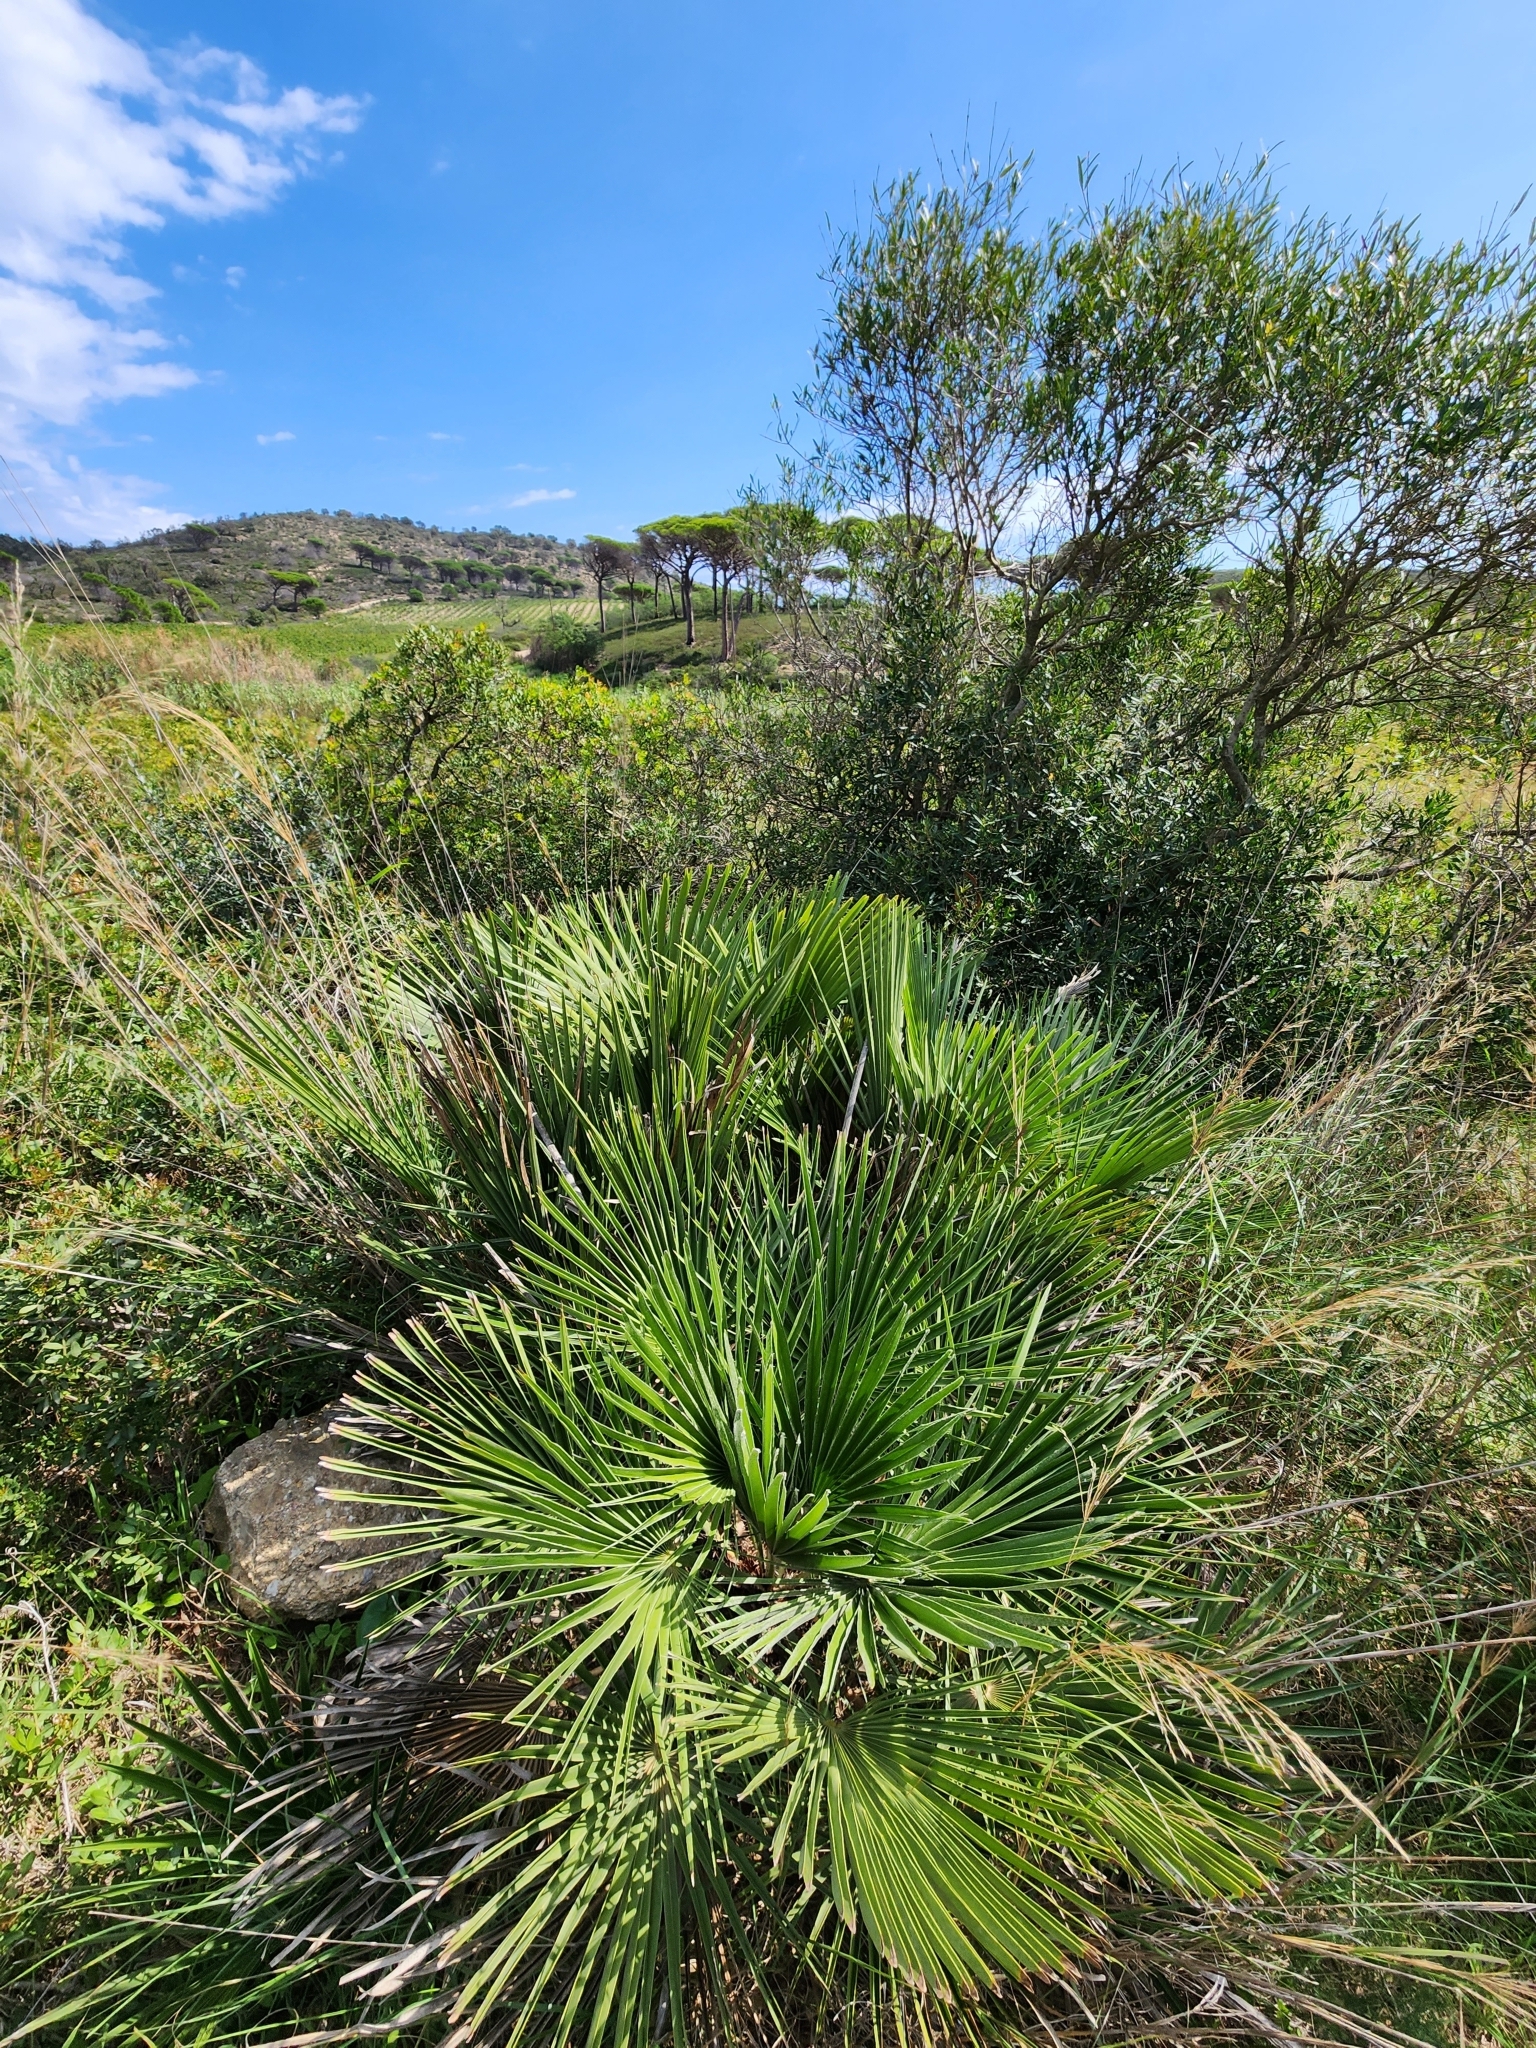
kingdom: Plantae
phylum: Tracheophyta
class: Liliopsida
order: Arecales
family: Arecaceae
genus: Chamaerops
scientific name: Chamaerops humilis
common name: Dwarf fan palm
